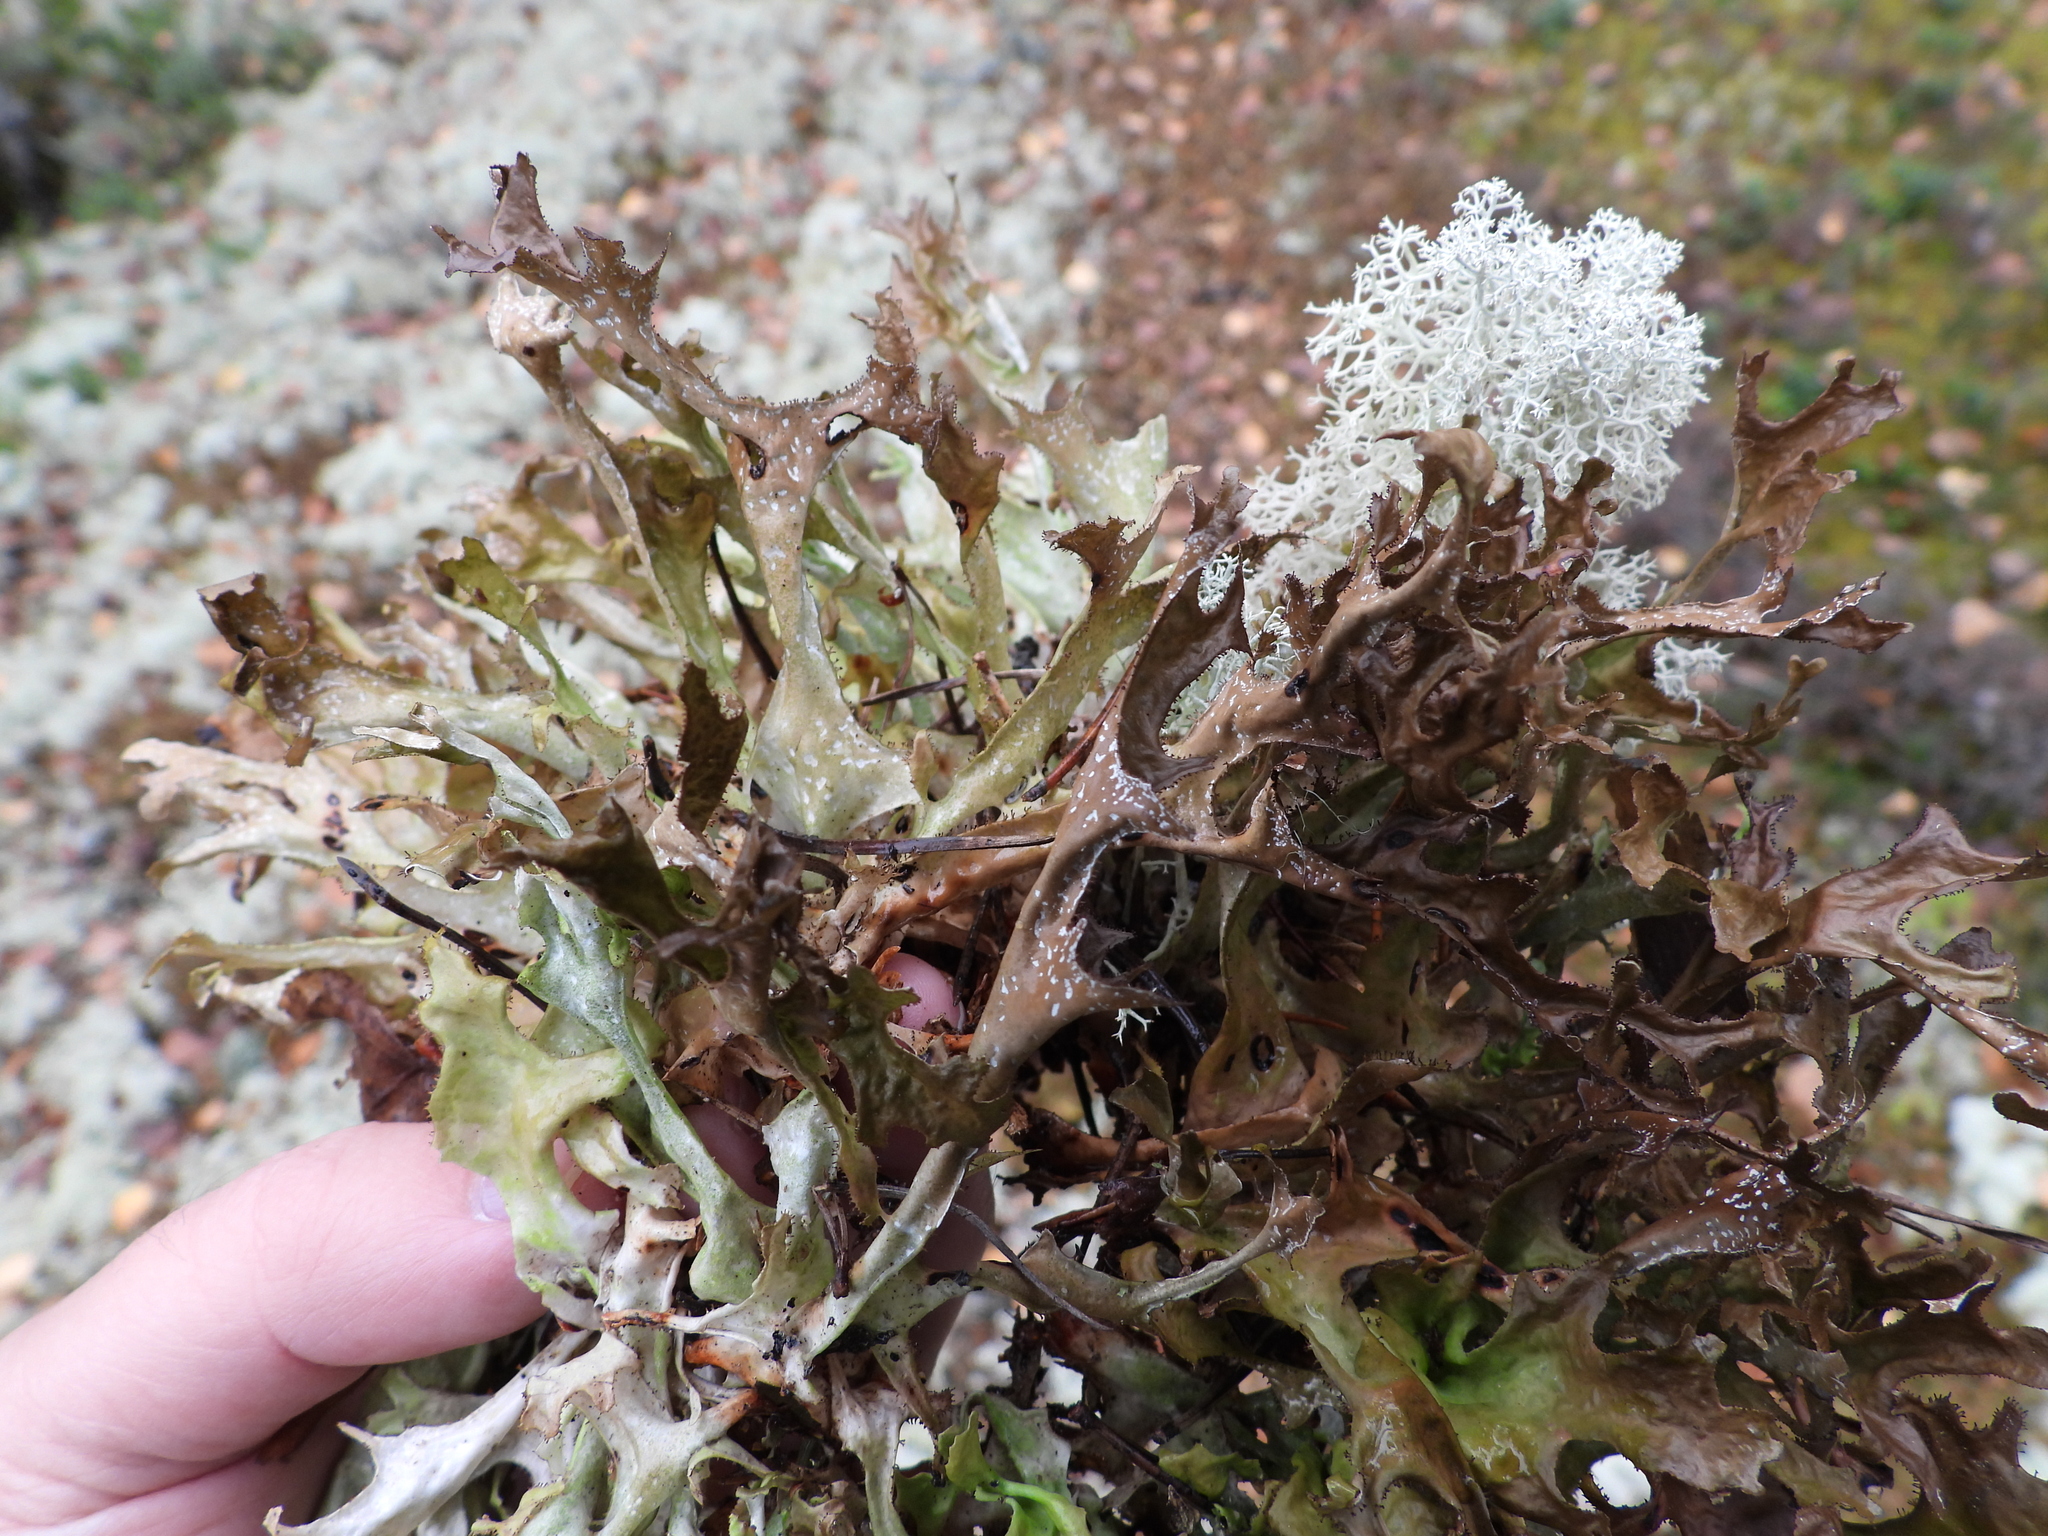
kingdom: Fungi
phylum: Ascomycota
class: Lecanoromycetes
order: Lecanorales
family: Parmeliaceae
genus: Cetraria
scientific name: Cetraria islandica
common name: Iceland lichen
